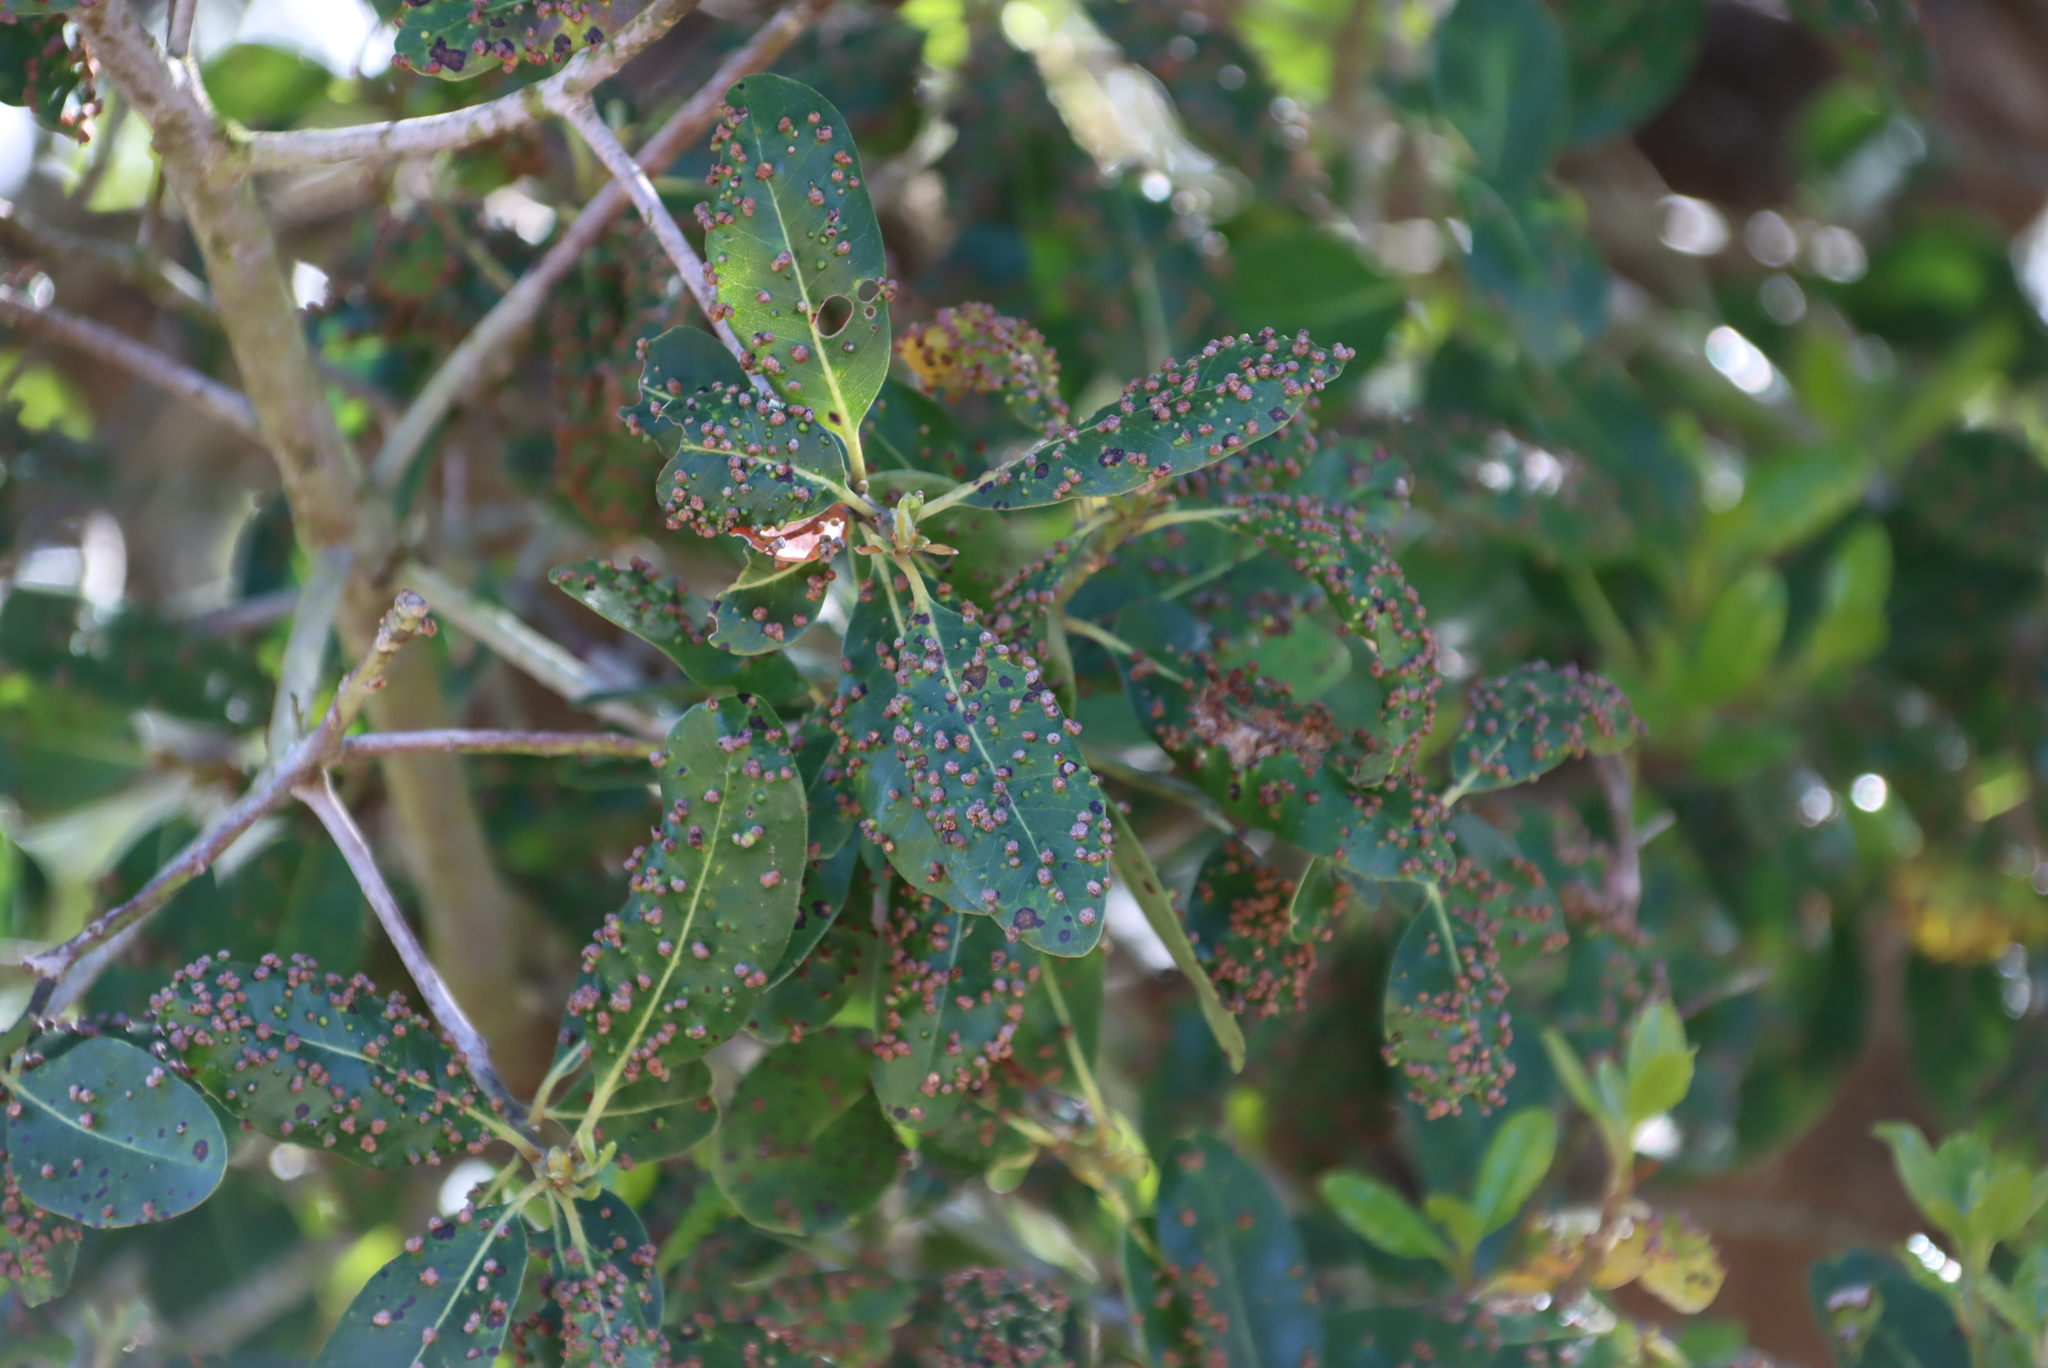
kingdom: Plantae
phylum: Tracheophyta
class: Magnoliopsida
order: Ericales
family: Sapotaceae
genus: Sideroxylon
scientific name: Sideroxylon inerme
